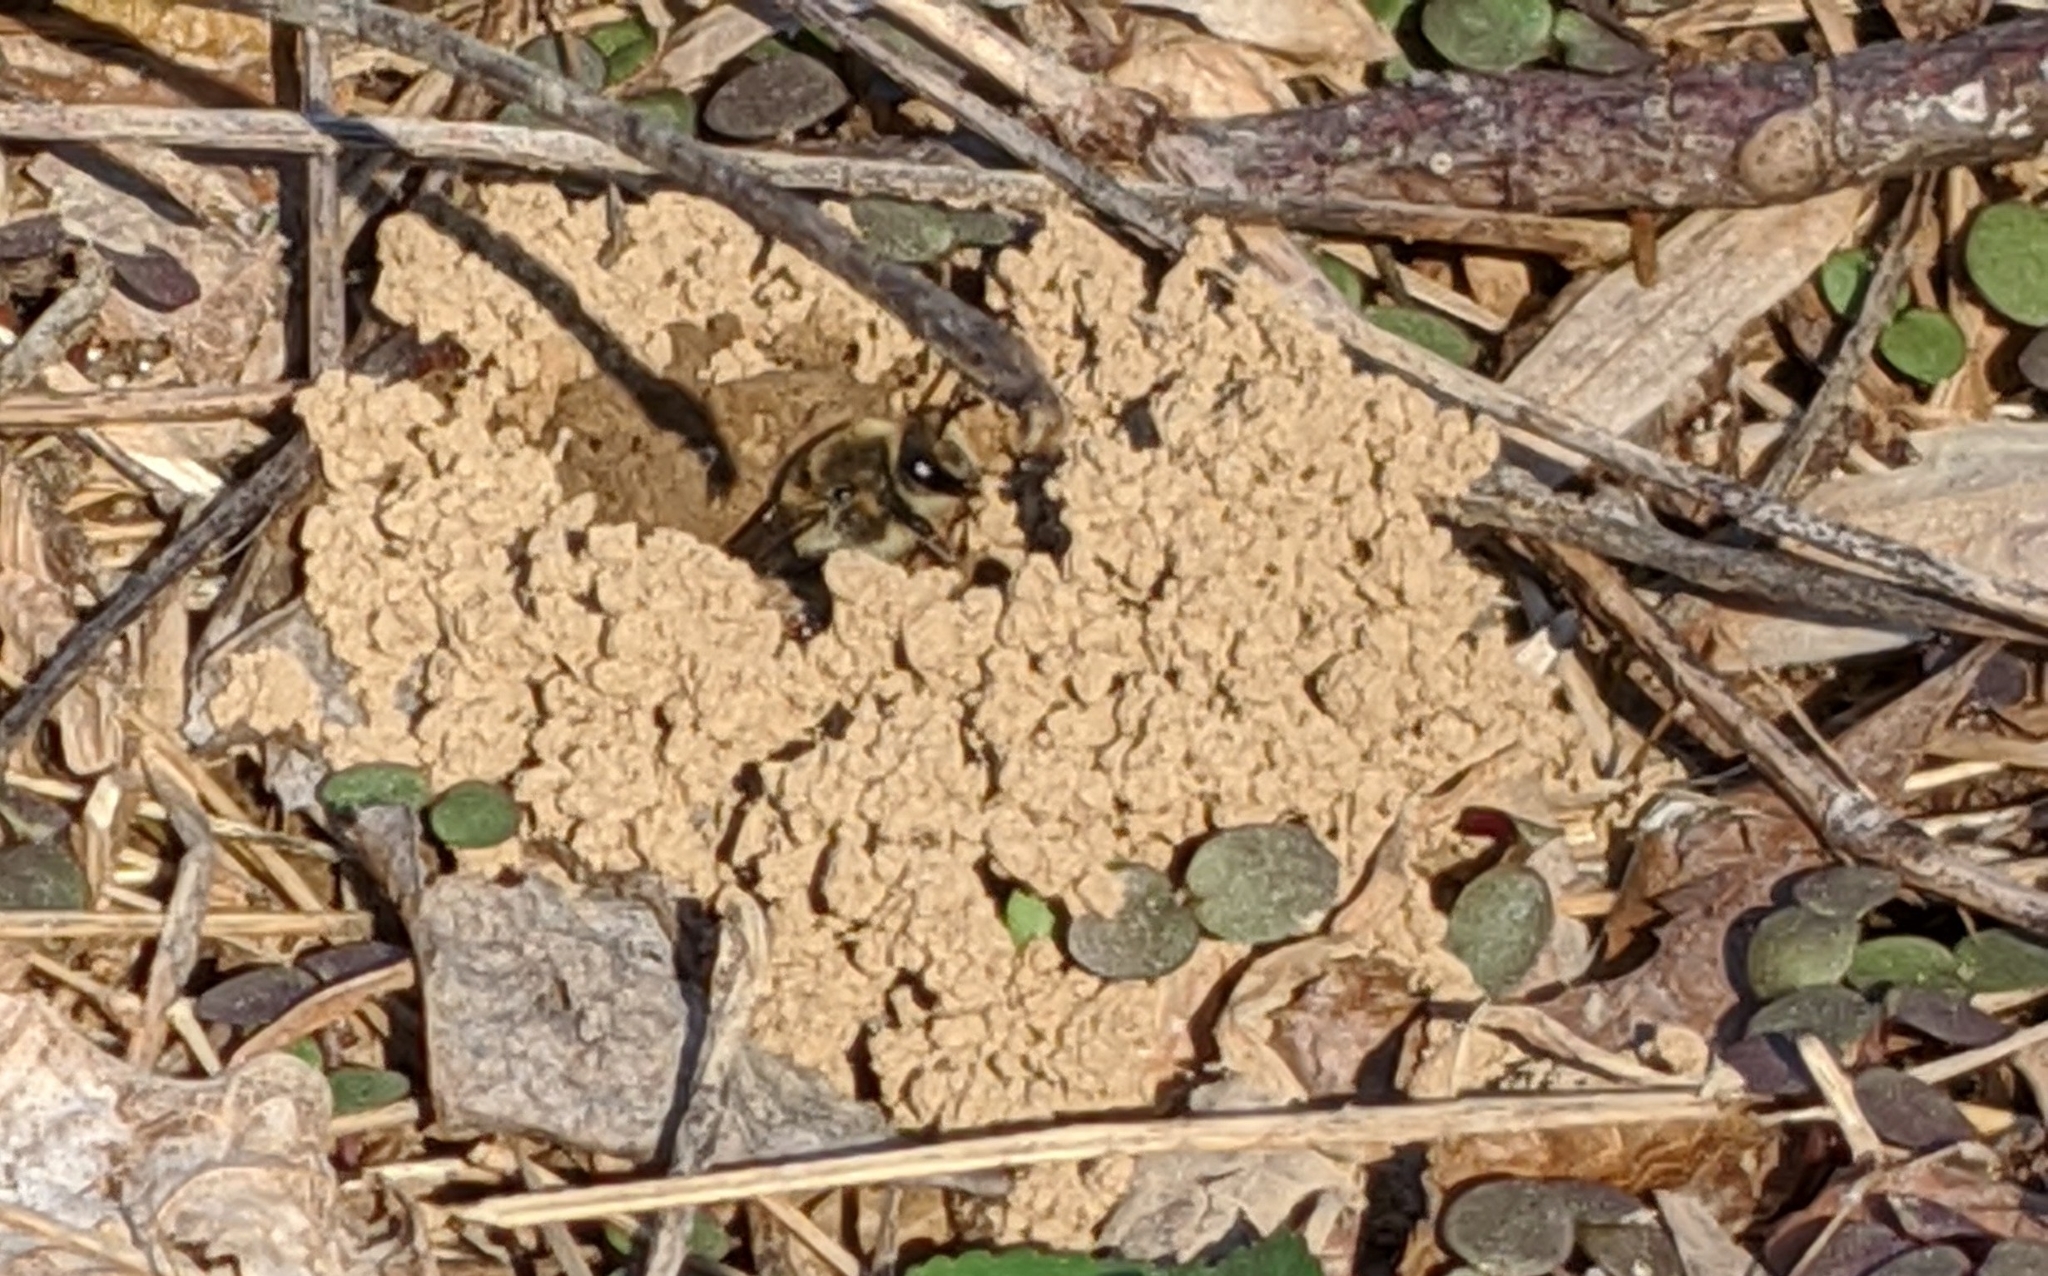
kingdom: Animalia
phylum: Arthropoda
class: Insecta
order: Hymenoptera
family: Colletidae
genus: Colletes
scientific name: Colletes inaequalis
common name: Unequal cellophane bee
